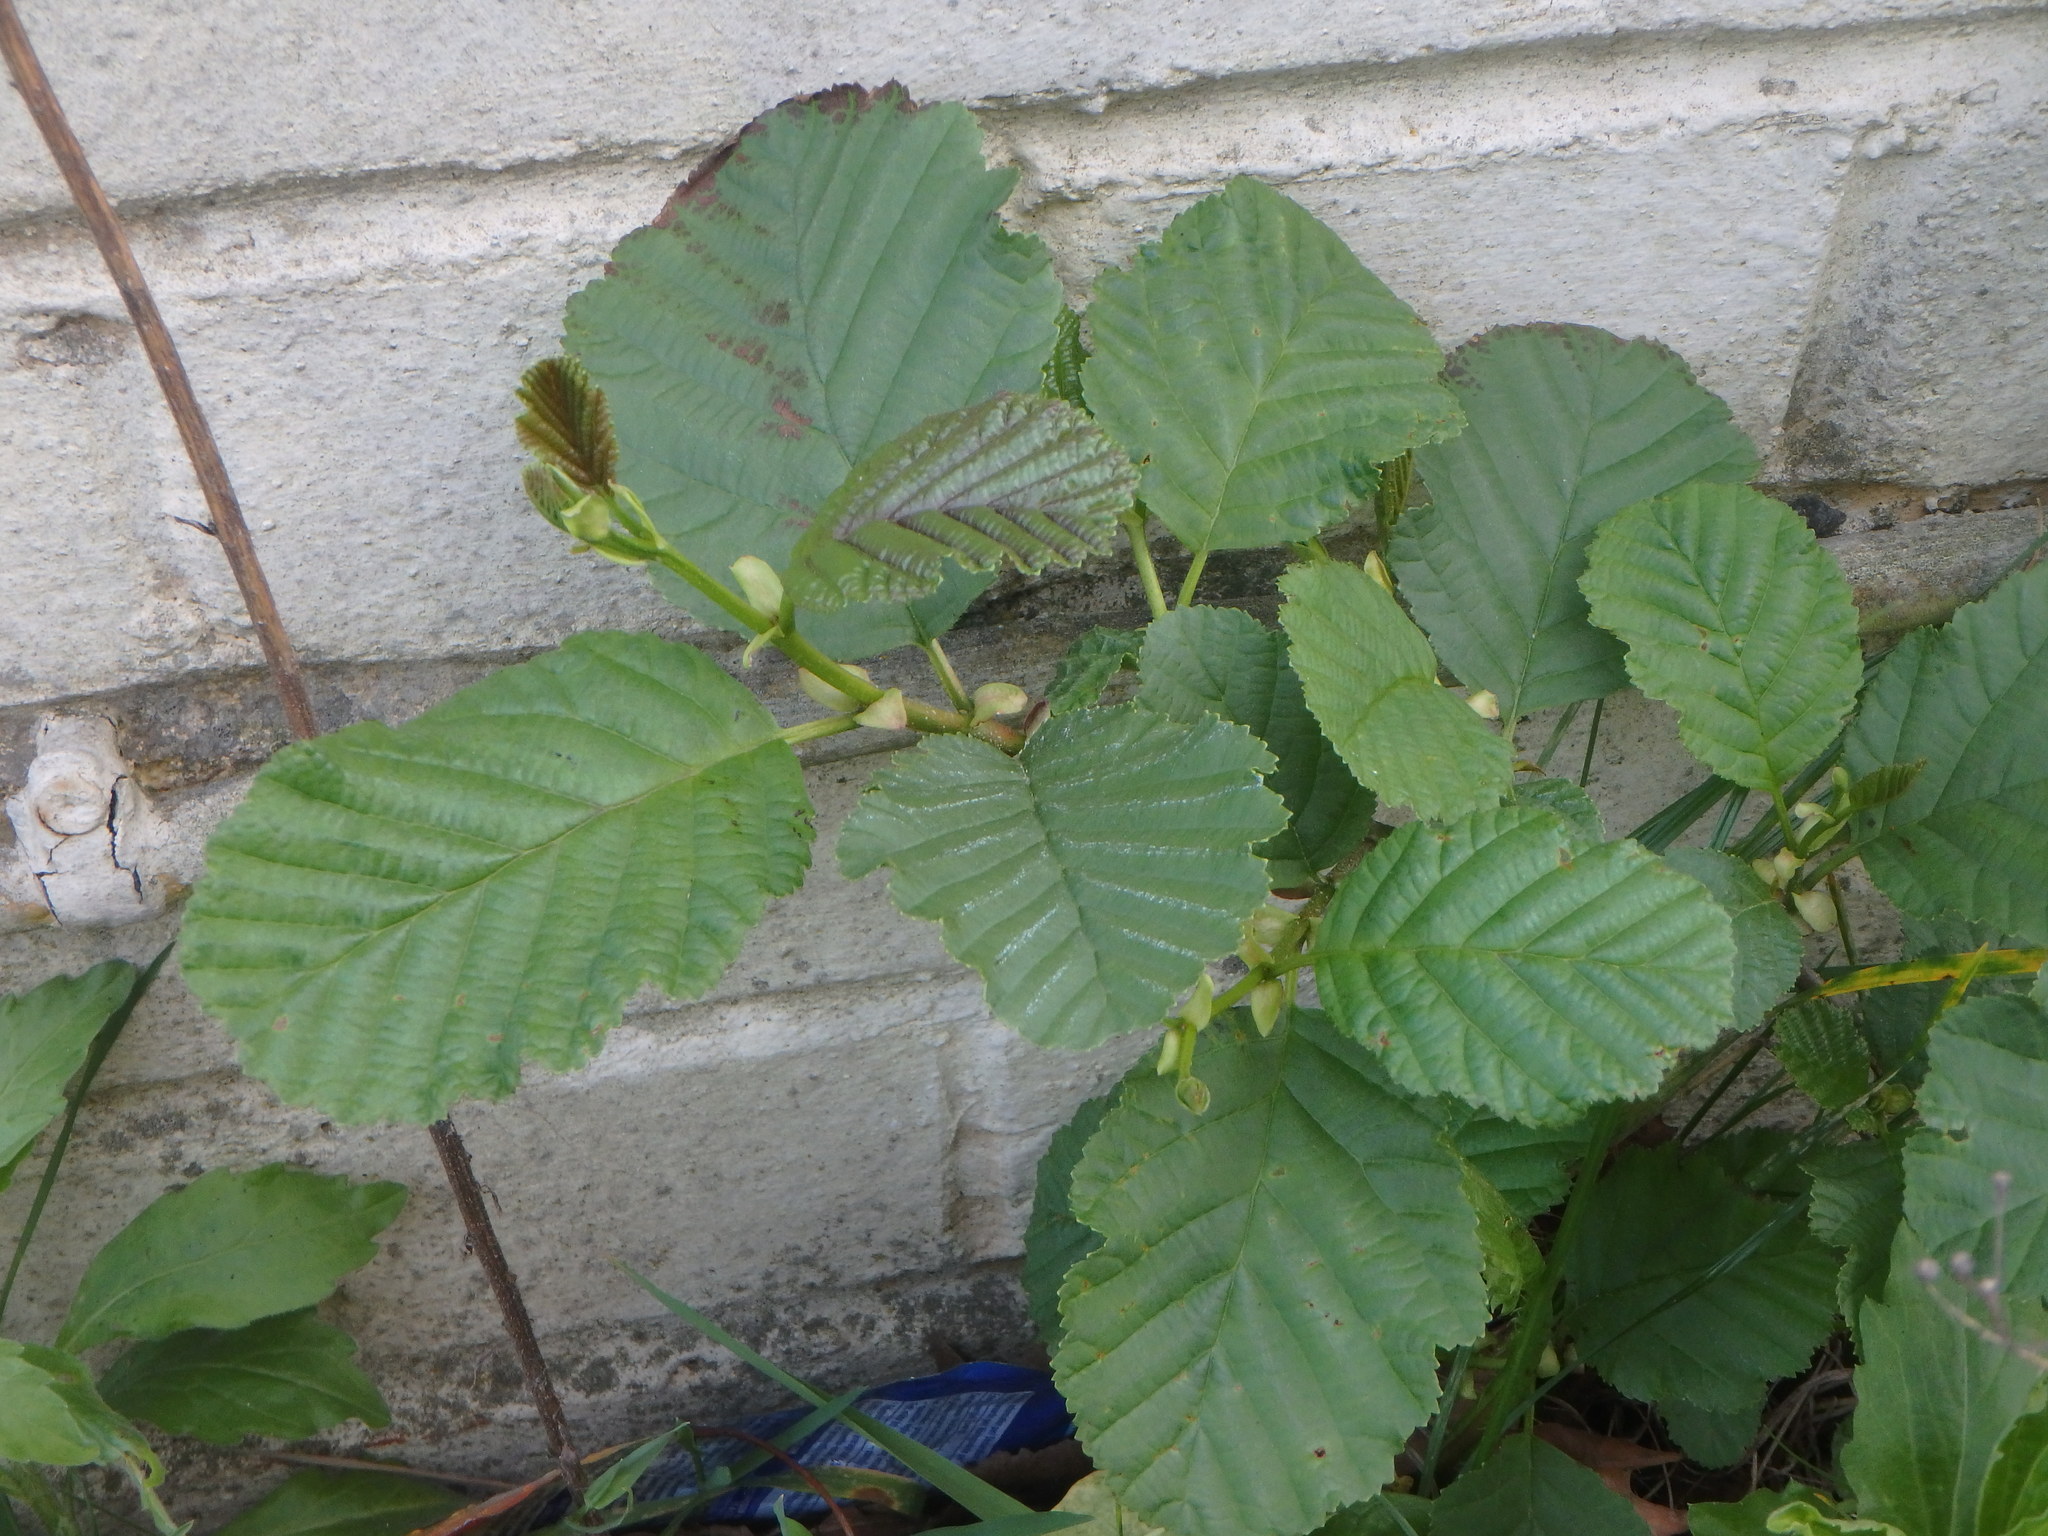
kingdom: Plantae
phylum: Tracheophyta
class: Magnoliopsida
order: Fagales
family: Betulaceae
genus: Alnus
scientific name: Alnus glutinosa
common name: Black alder
